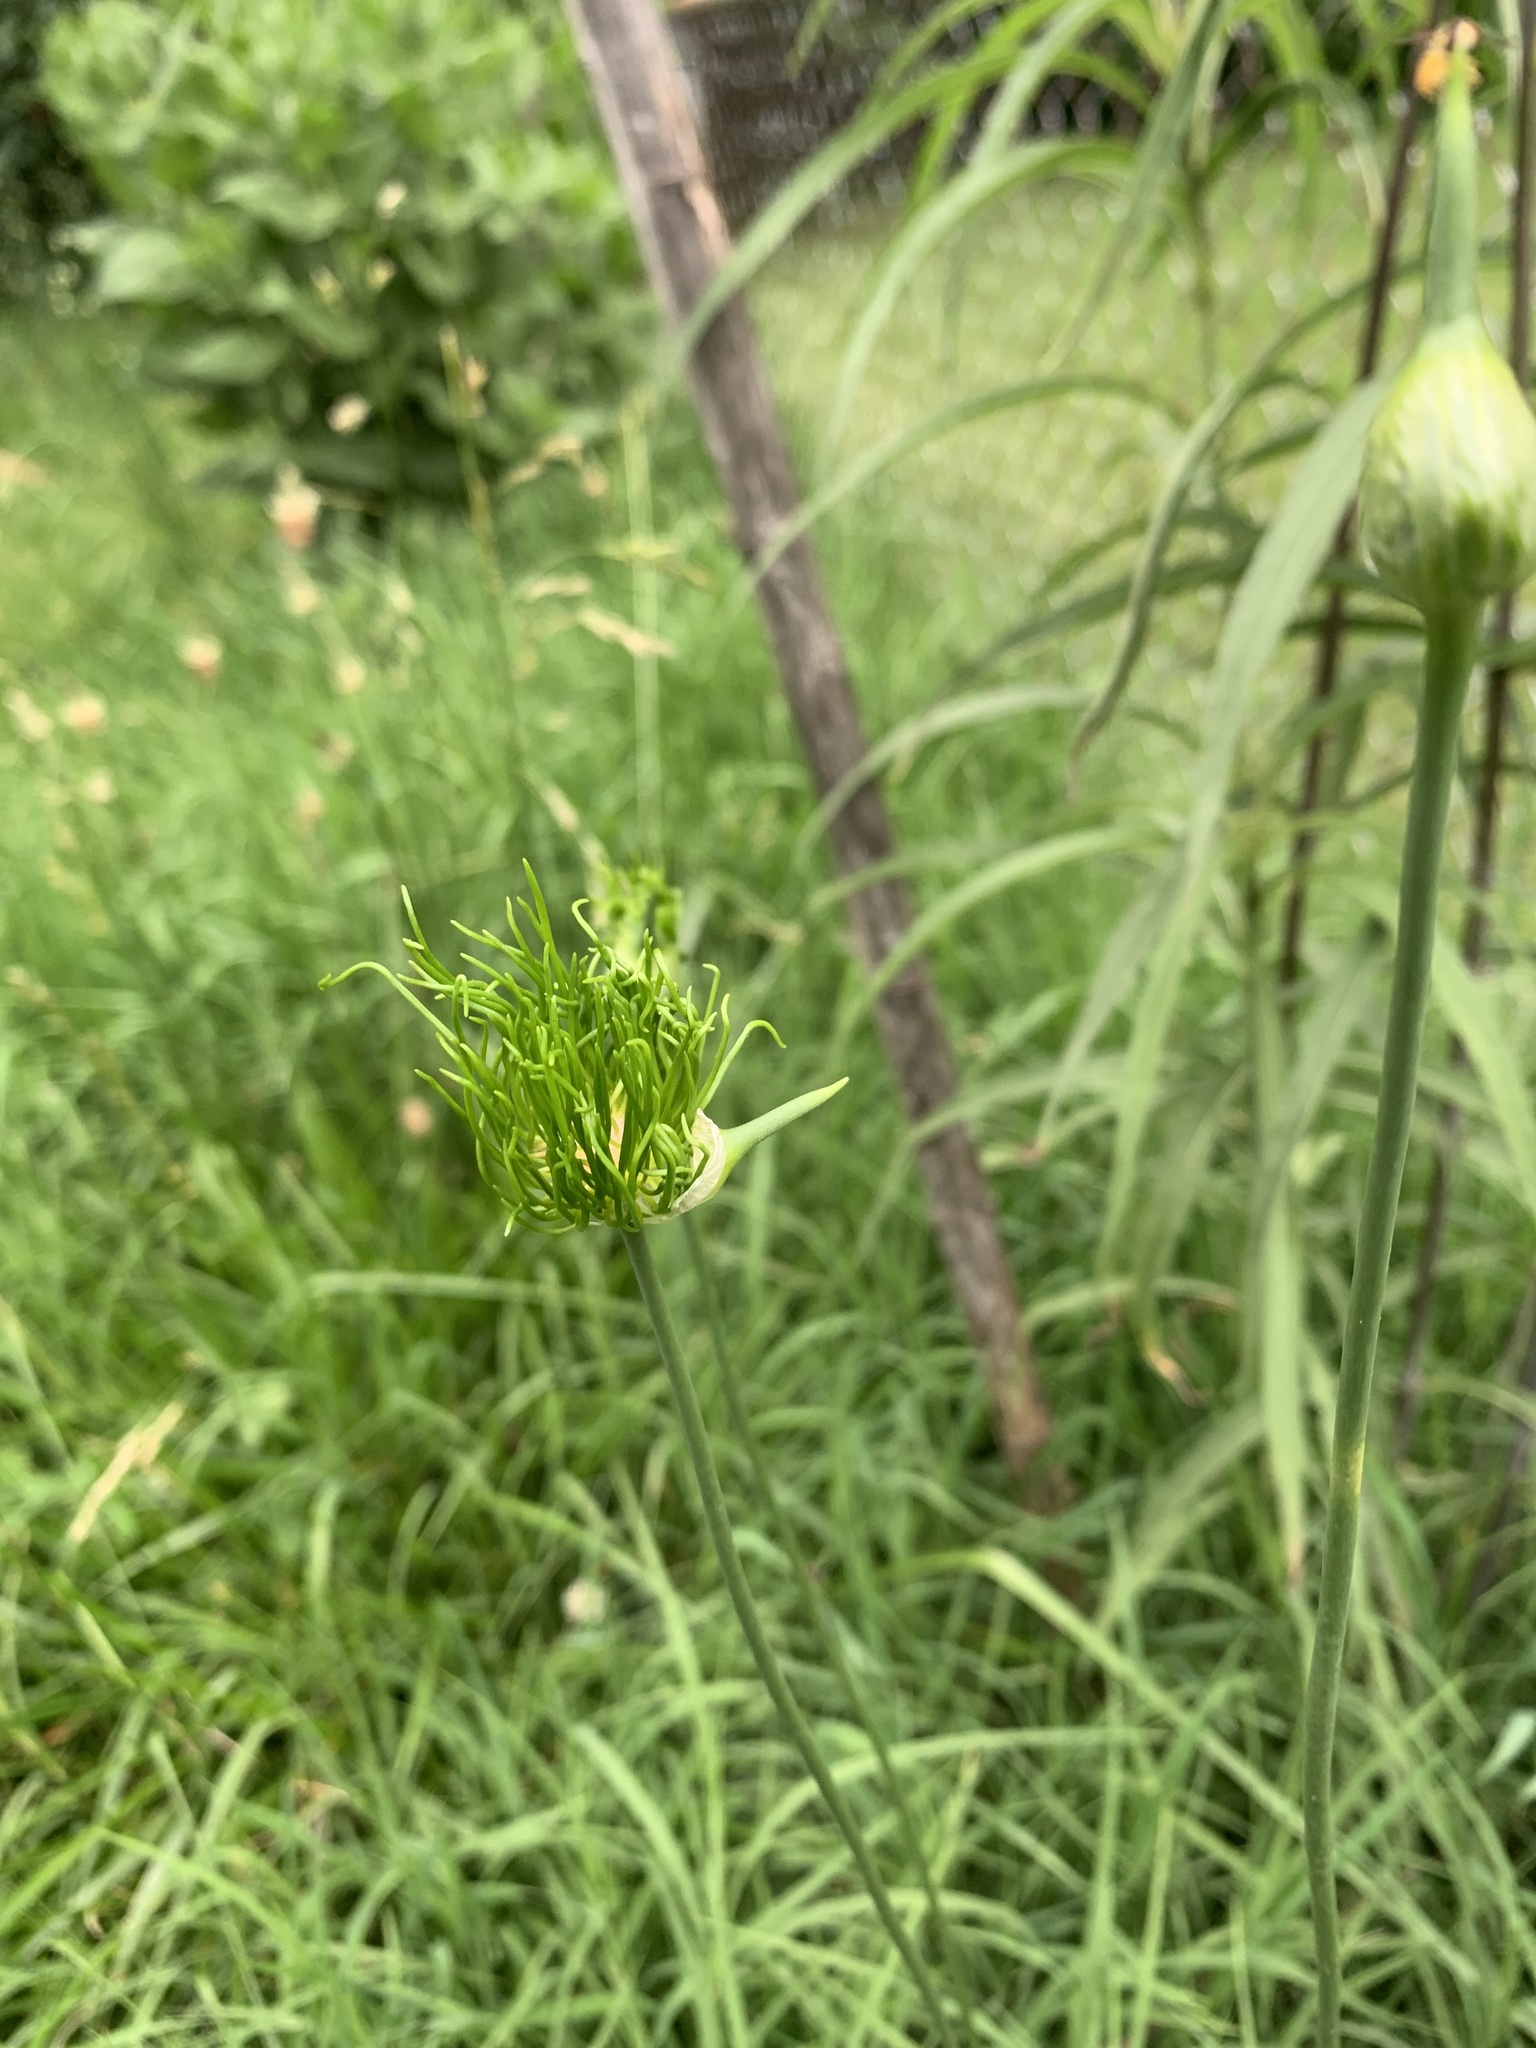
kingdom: Plantae
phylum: Tracheophyta
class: Liliopsida
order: Asparagales
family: Amaryllidaceae
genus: Allium
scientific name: Allium vineale
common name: Crow garlic
